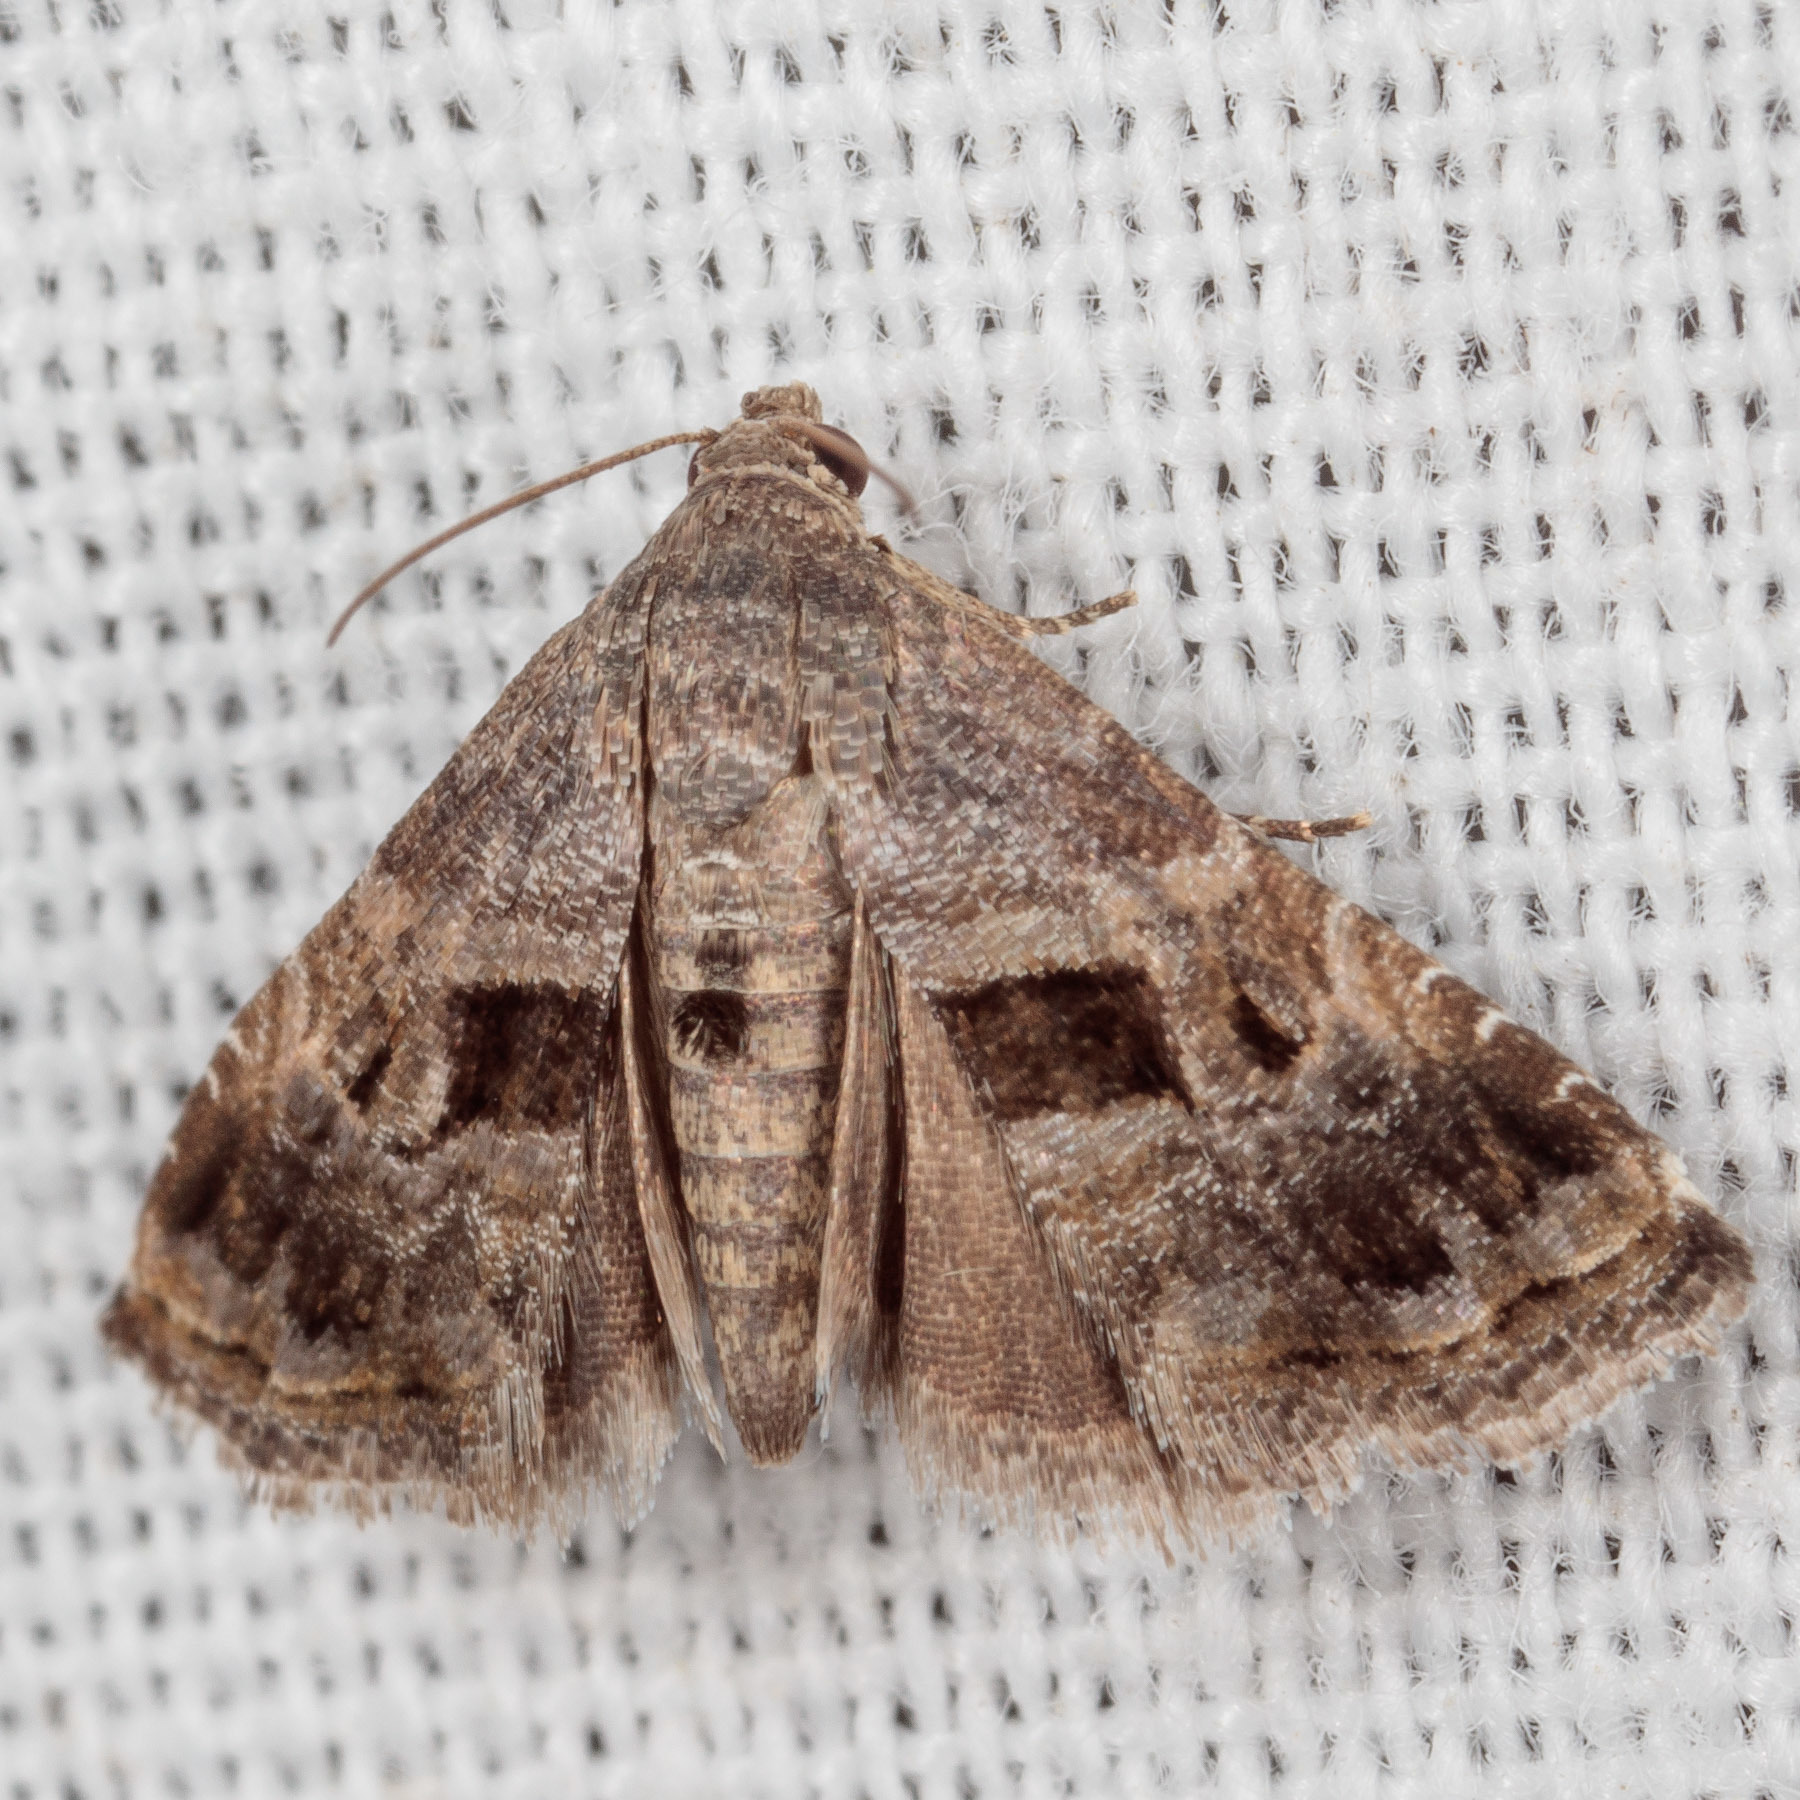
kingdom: Animalia
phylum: Arthropoda
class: Insecta
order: Lepidoptera
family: Noctuidae
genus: Tripudia
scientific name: Tripudia quadrifera
